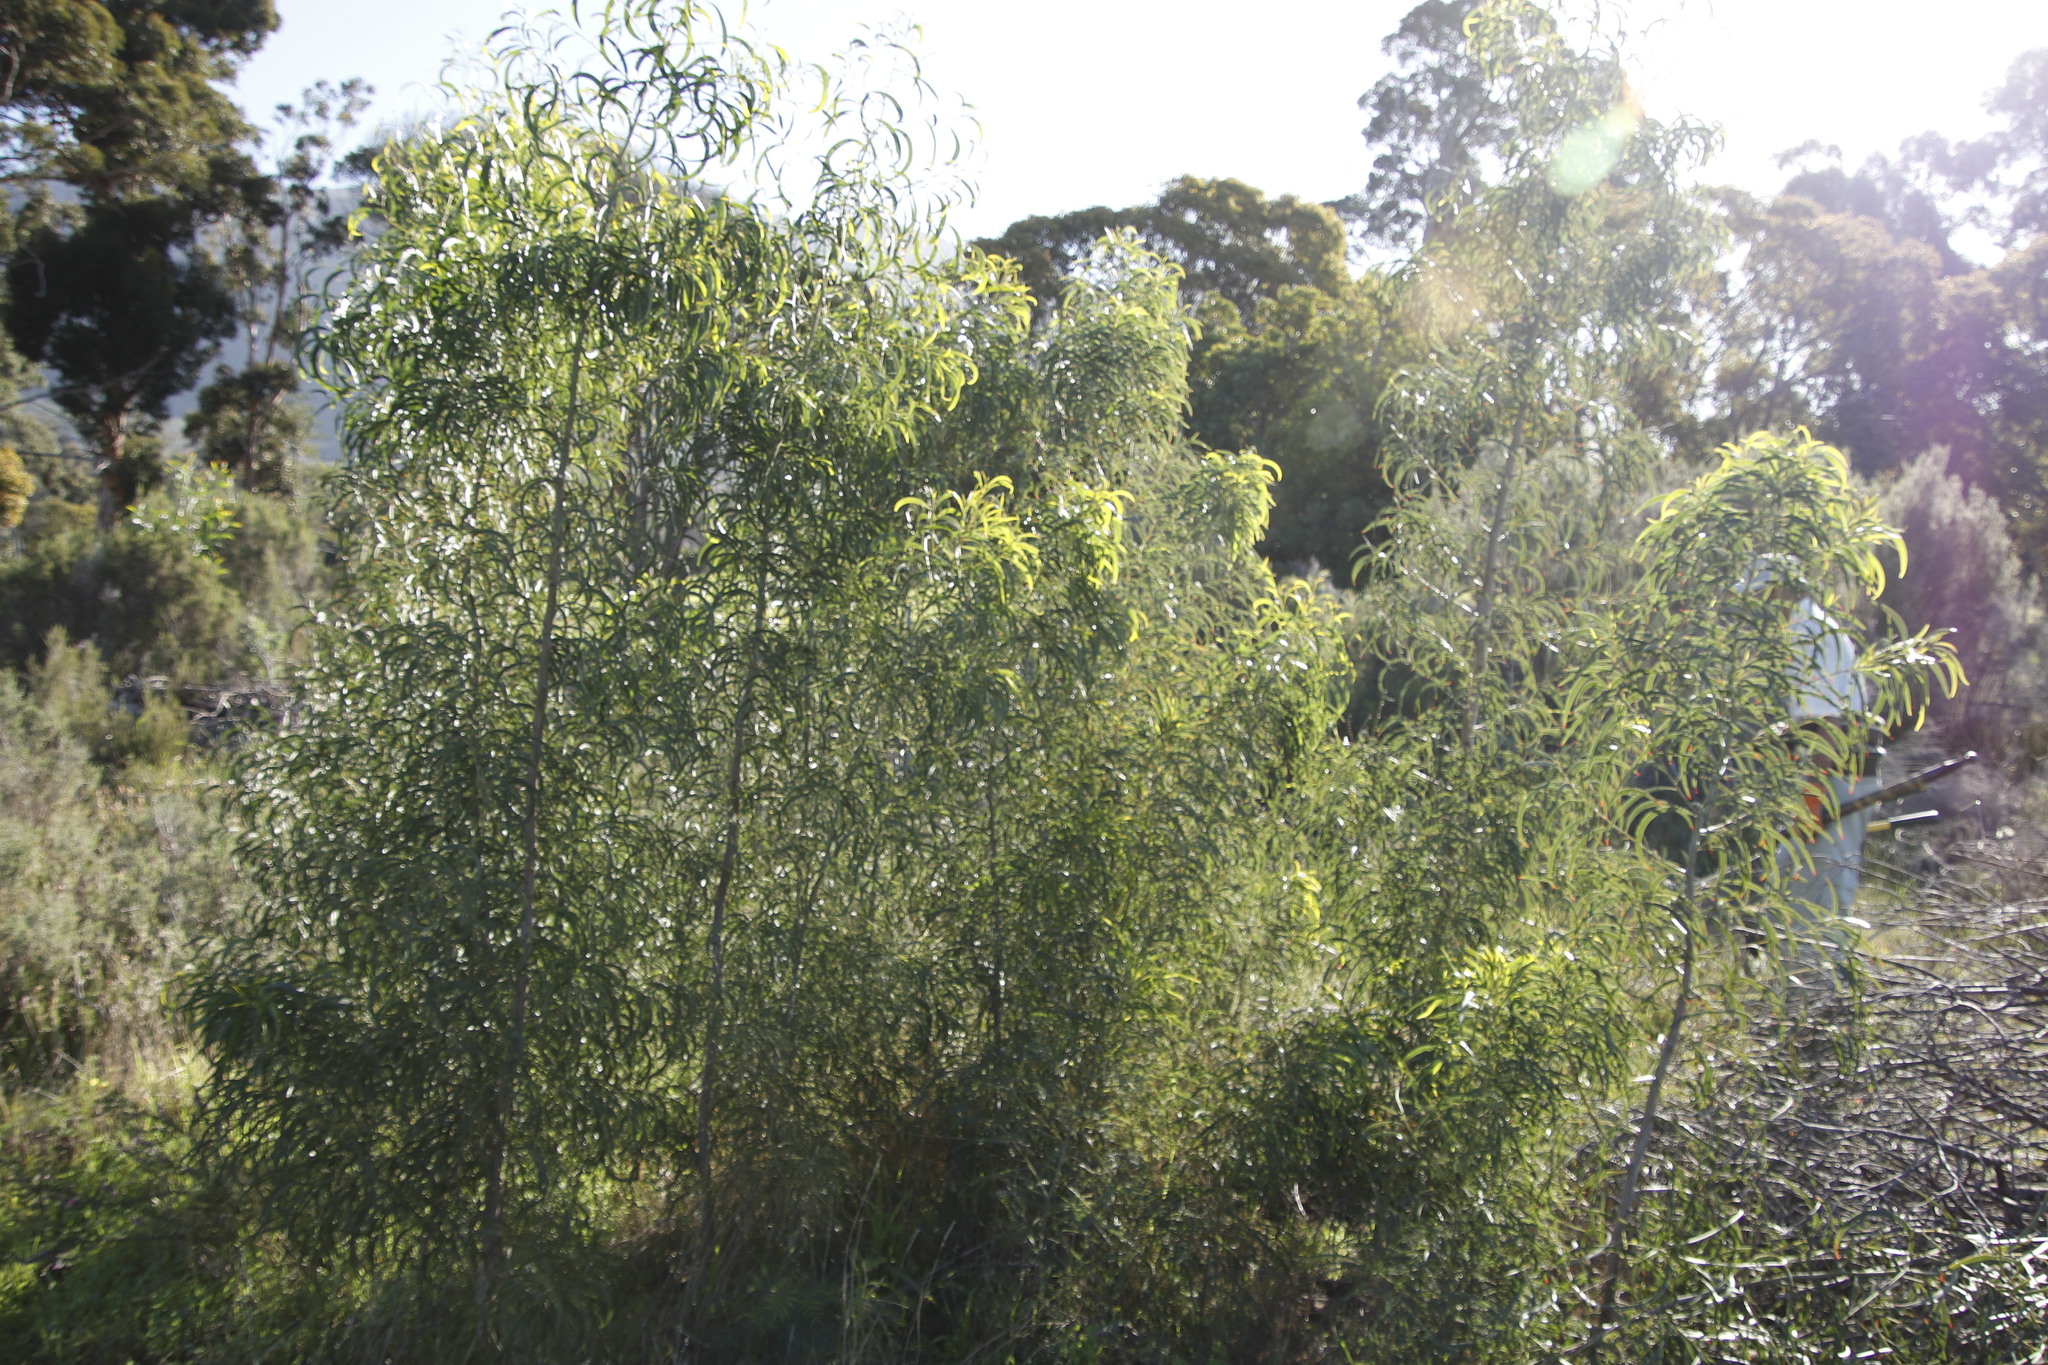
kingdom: Plantae
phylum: Tracheophyta
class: Magnoliopsida
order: Fabales
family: Fabaceae
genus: Acacia
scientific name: Acacia implexa
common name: Black wattle
